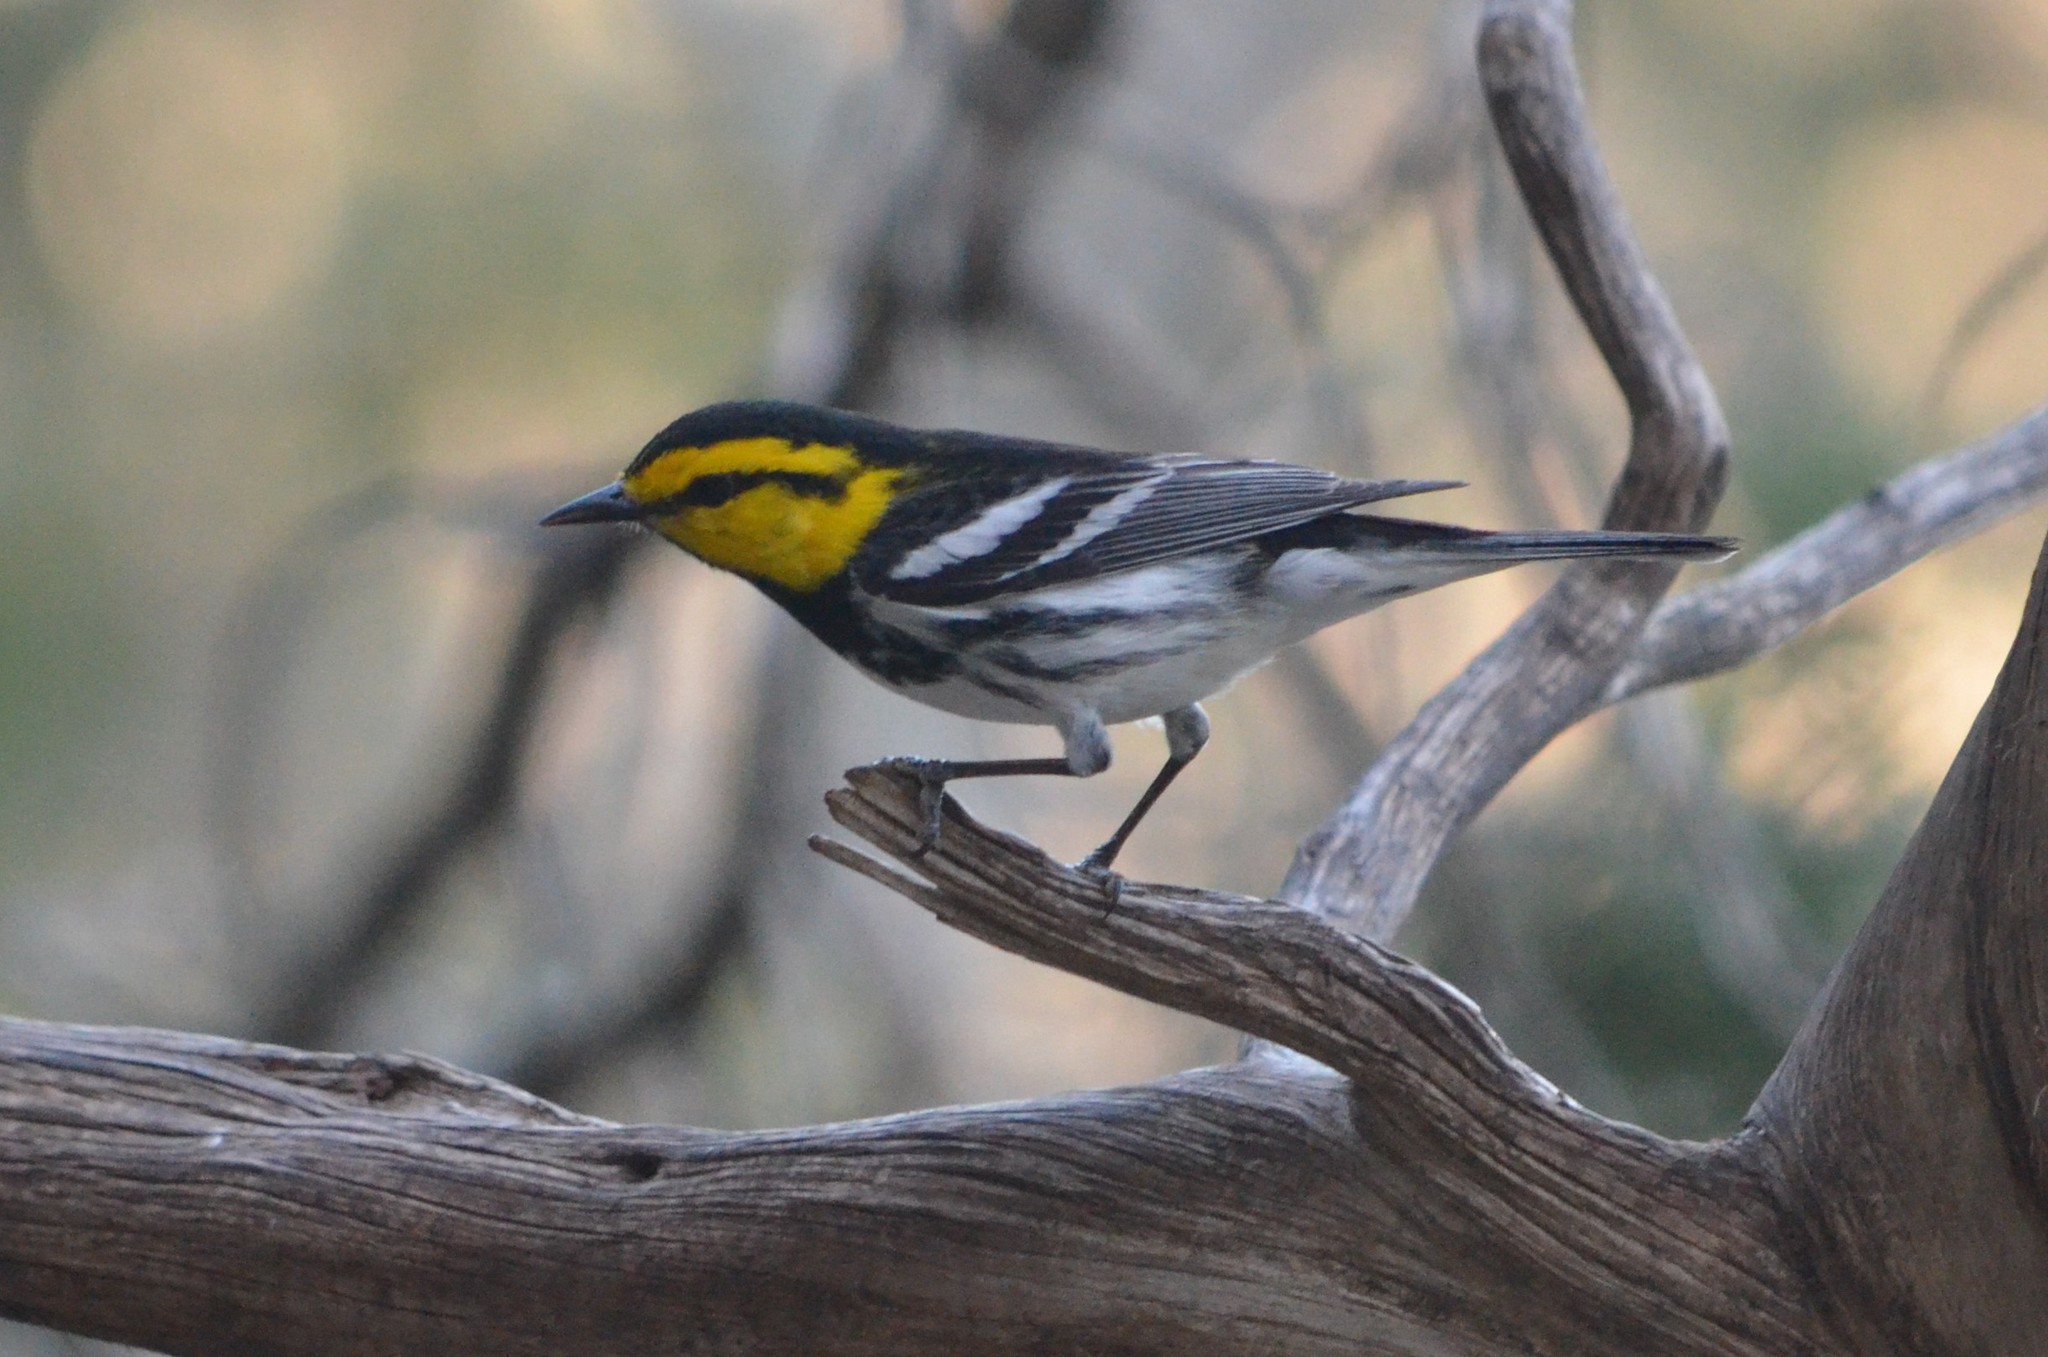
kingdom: Animalia
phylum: Chordata
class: Aves
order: Passeriformes
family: Parulidae
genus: Setophaga
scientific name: Setophaga chrysoparia
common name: Golden-cheeked warbler
